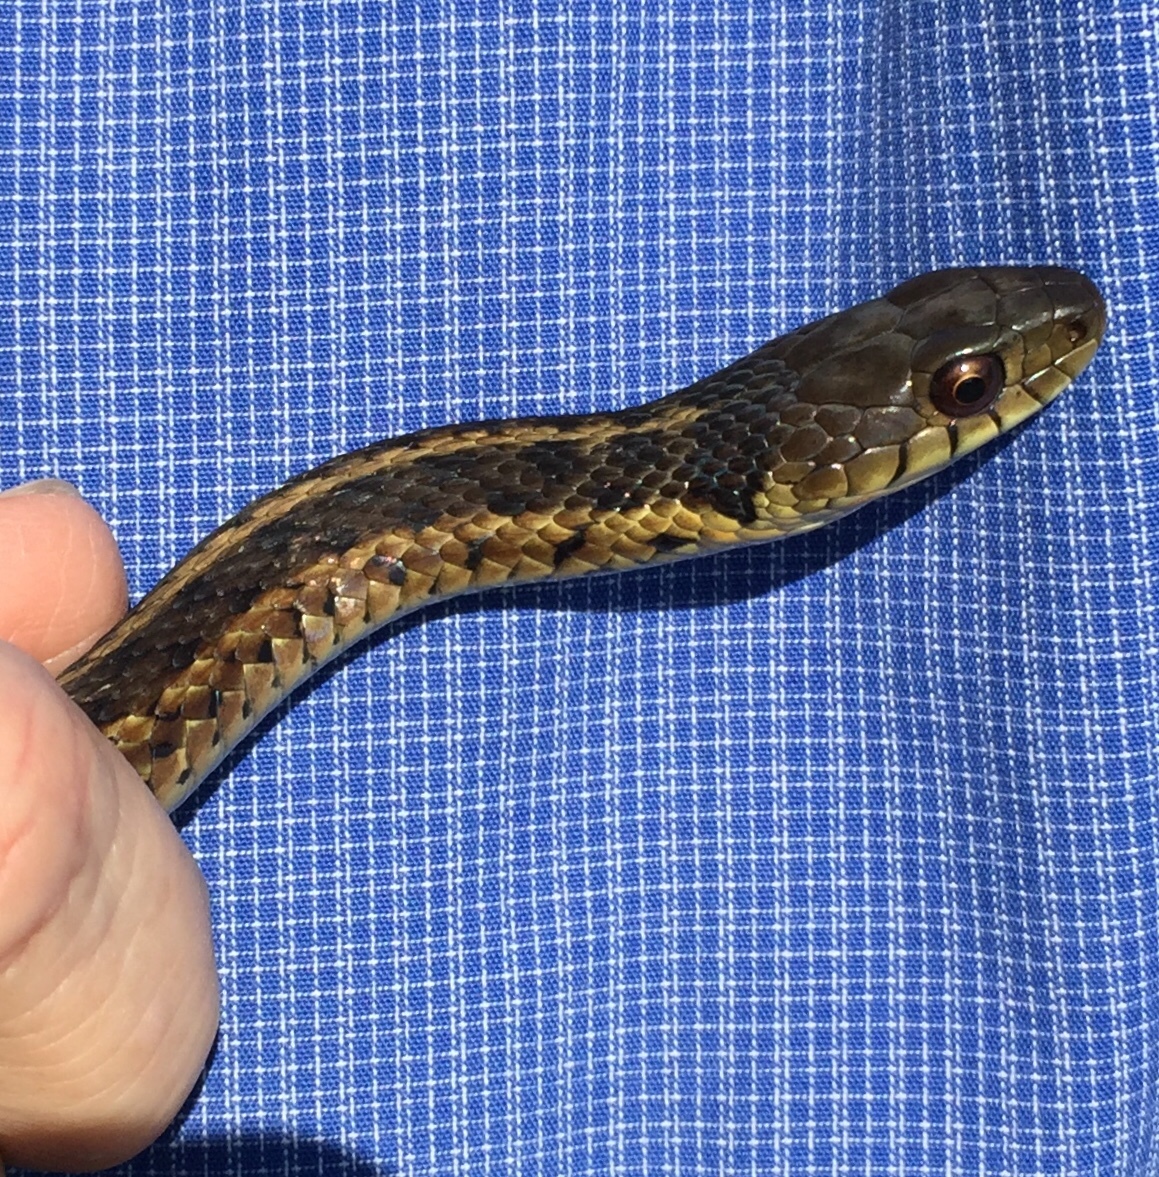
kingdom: Animalia
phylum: Chordata
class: Squamata
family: Colubridae
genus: Thamnophis
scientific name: Thamnophis sirtalis
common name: Common garter snake
